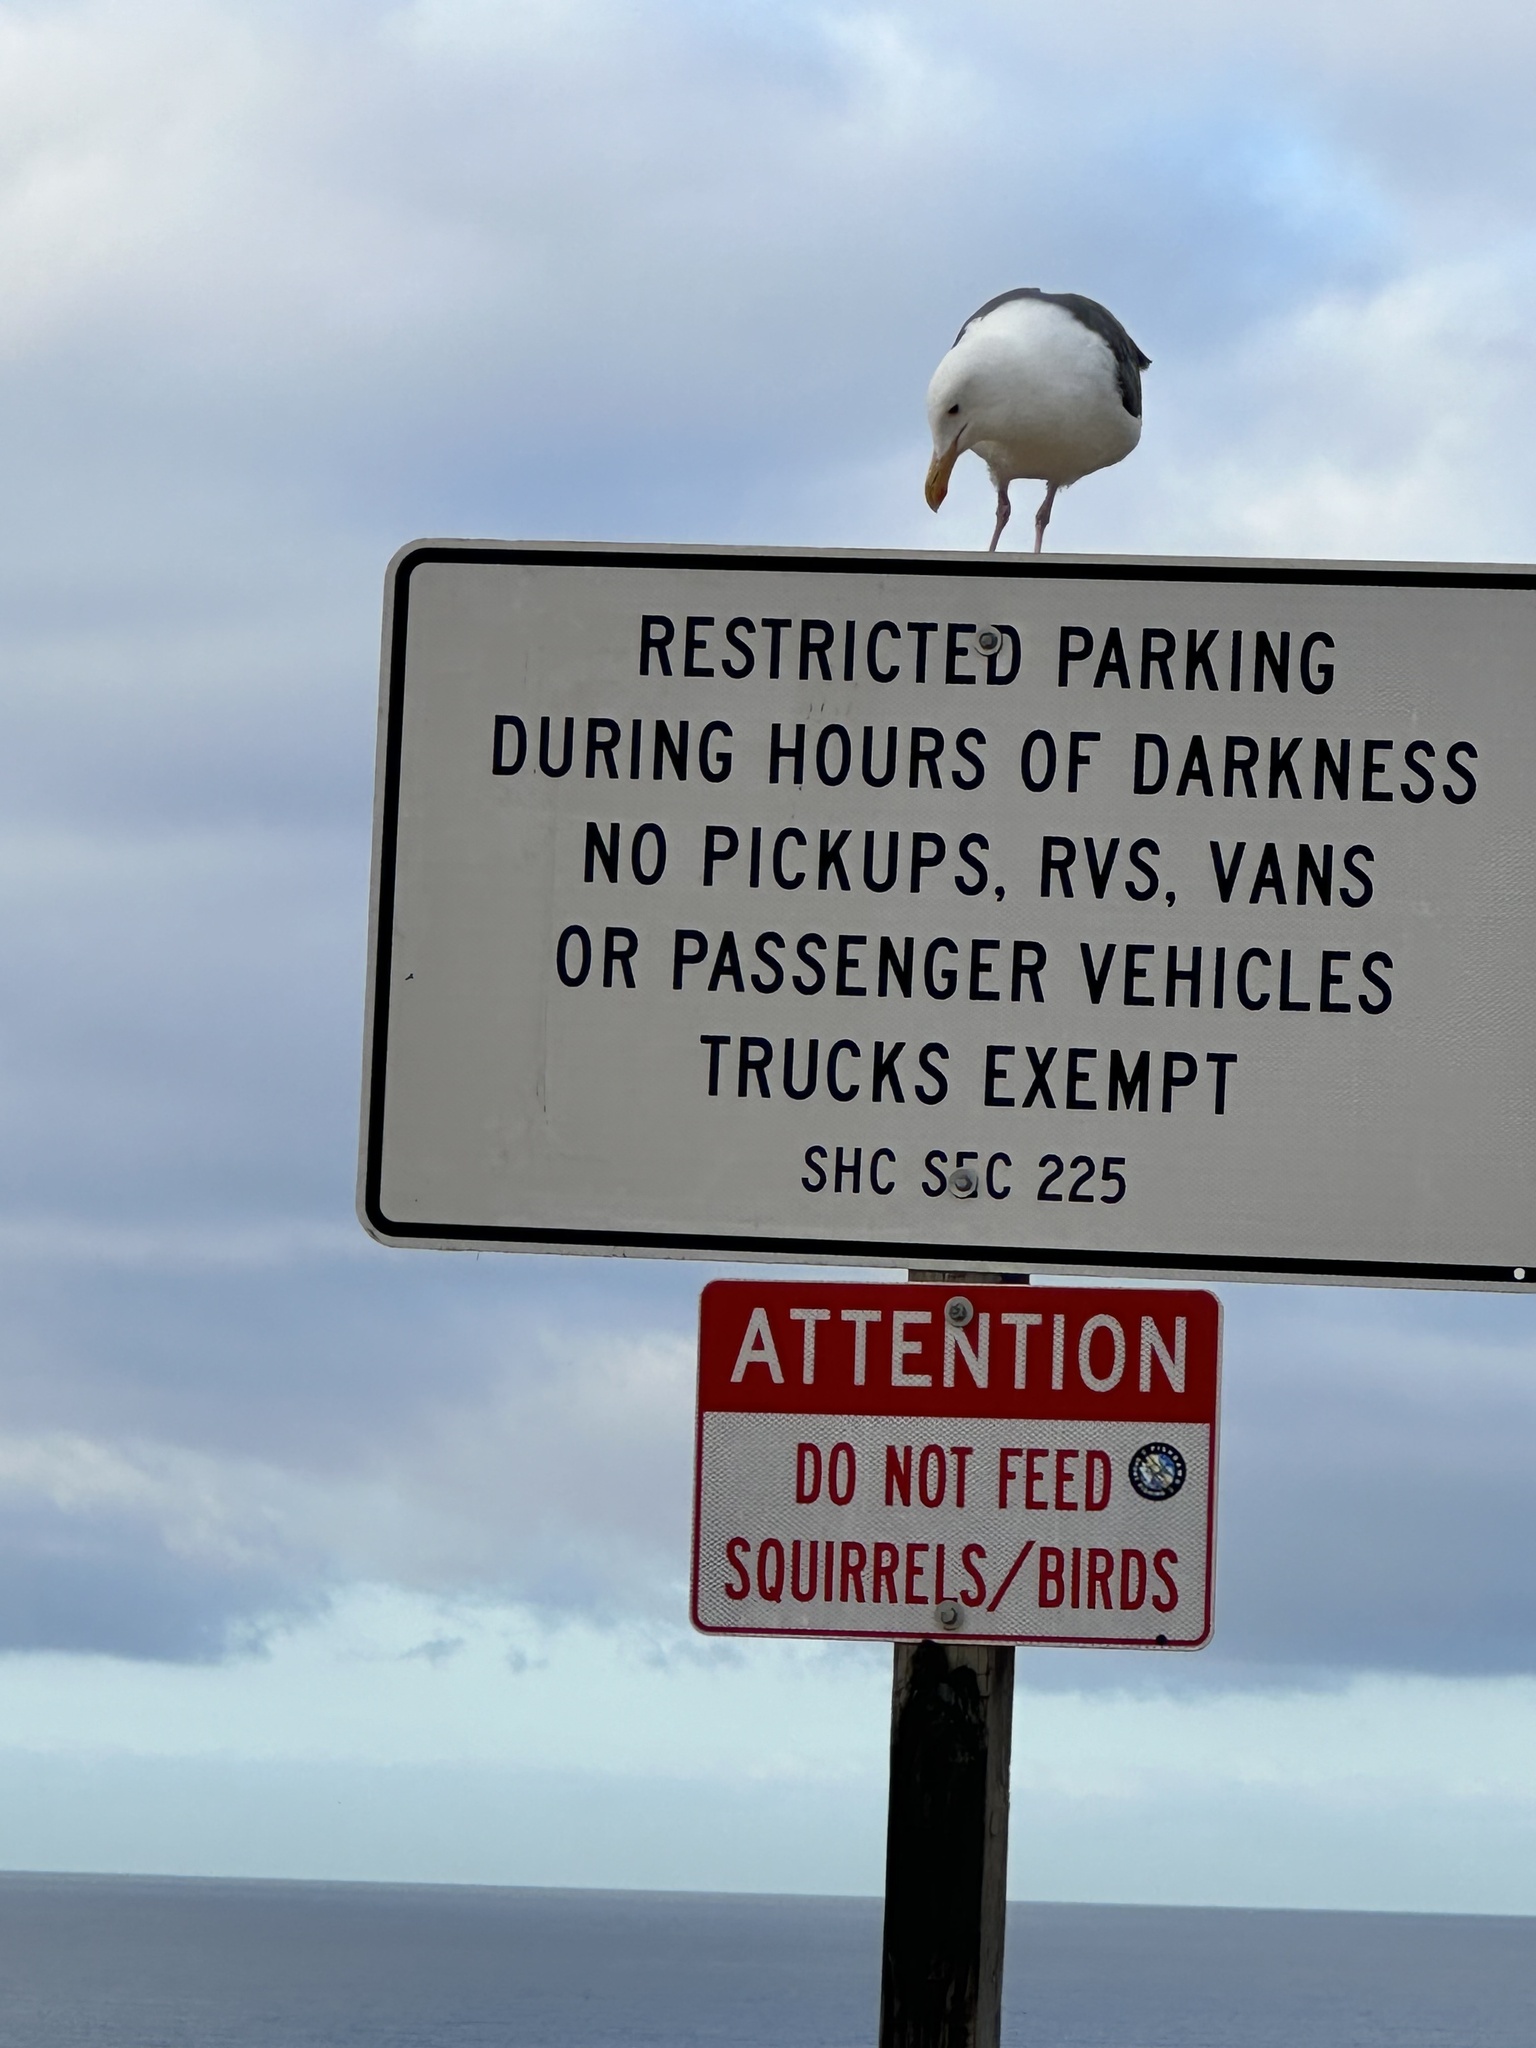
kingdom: Animalia
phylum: Chordata
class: Aves
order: Charadriiformes
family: Laridae
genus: Larus
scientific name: Larus occidentalis
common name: Western gull
